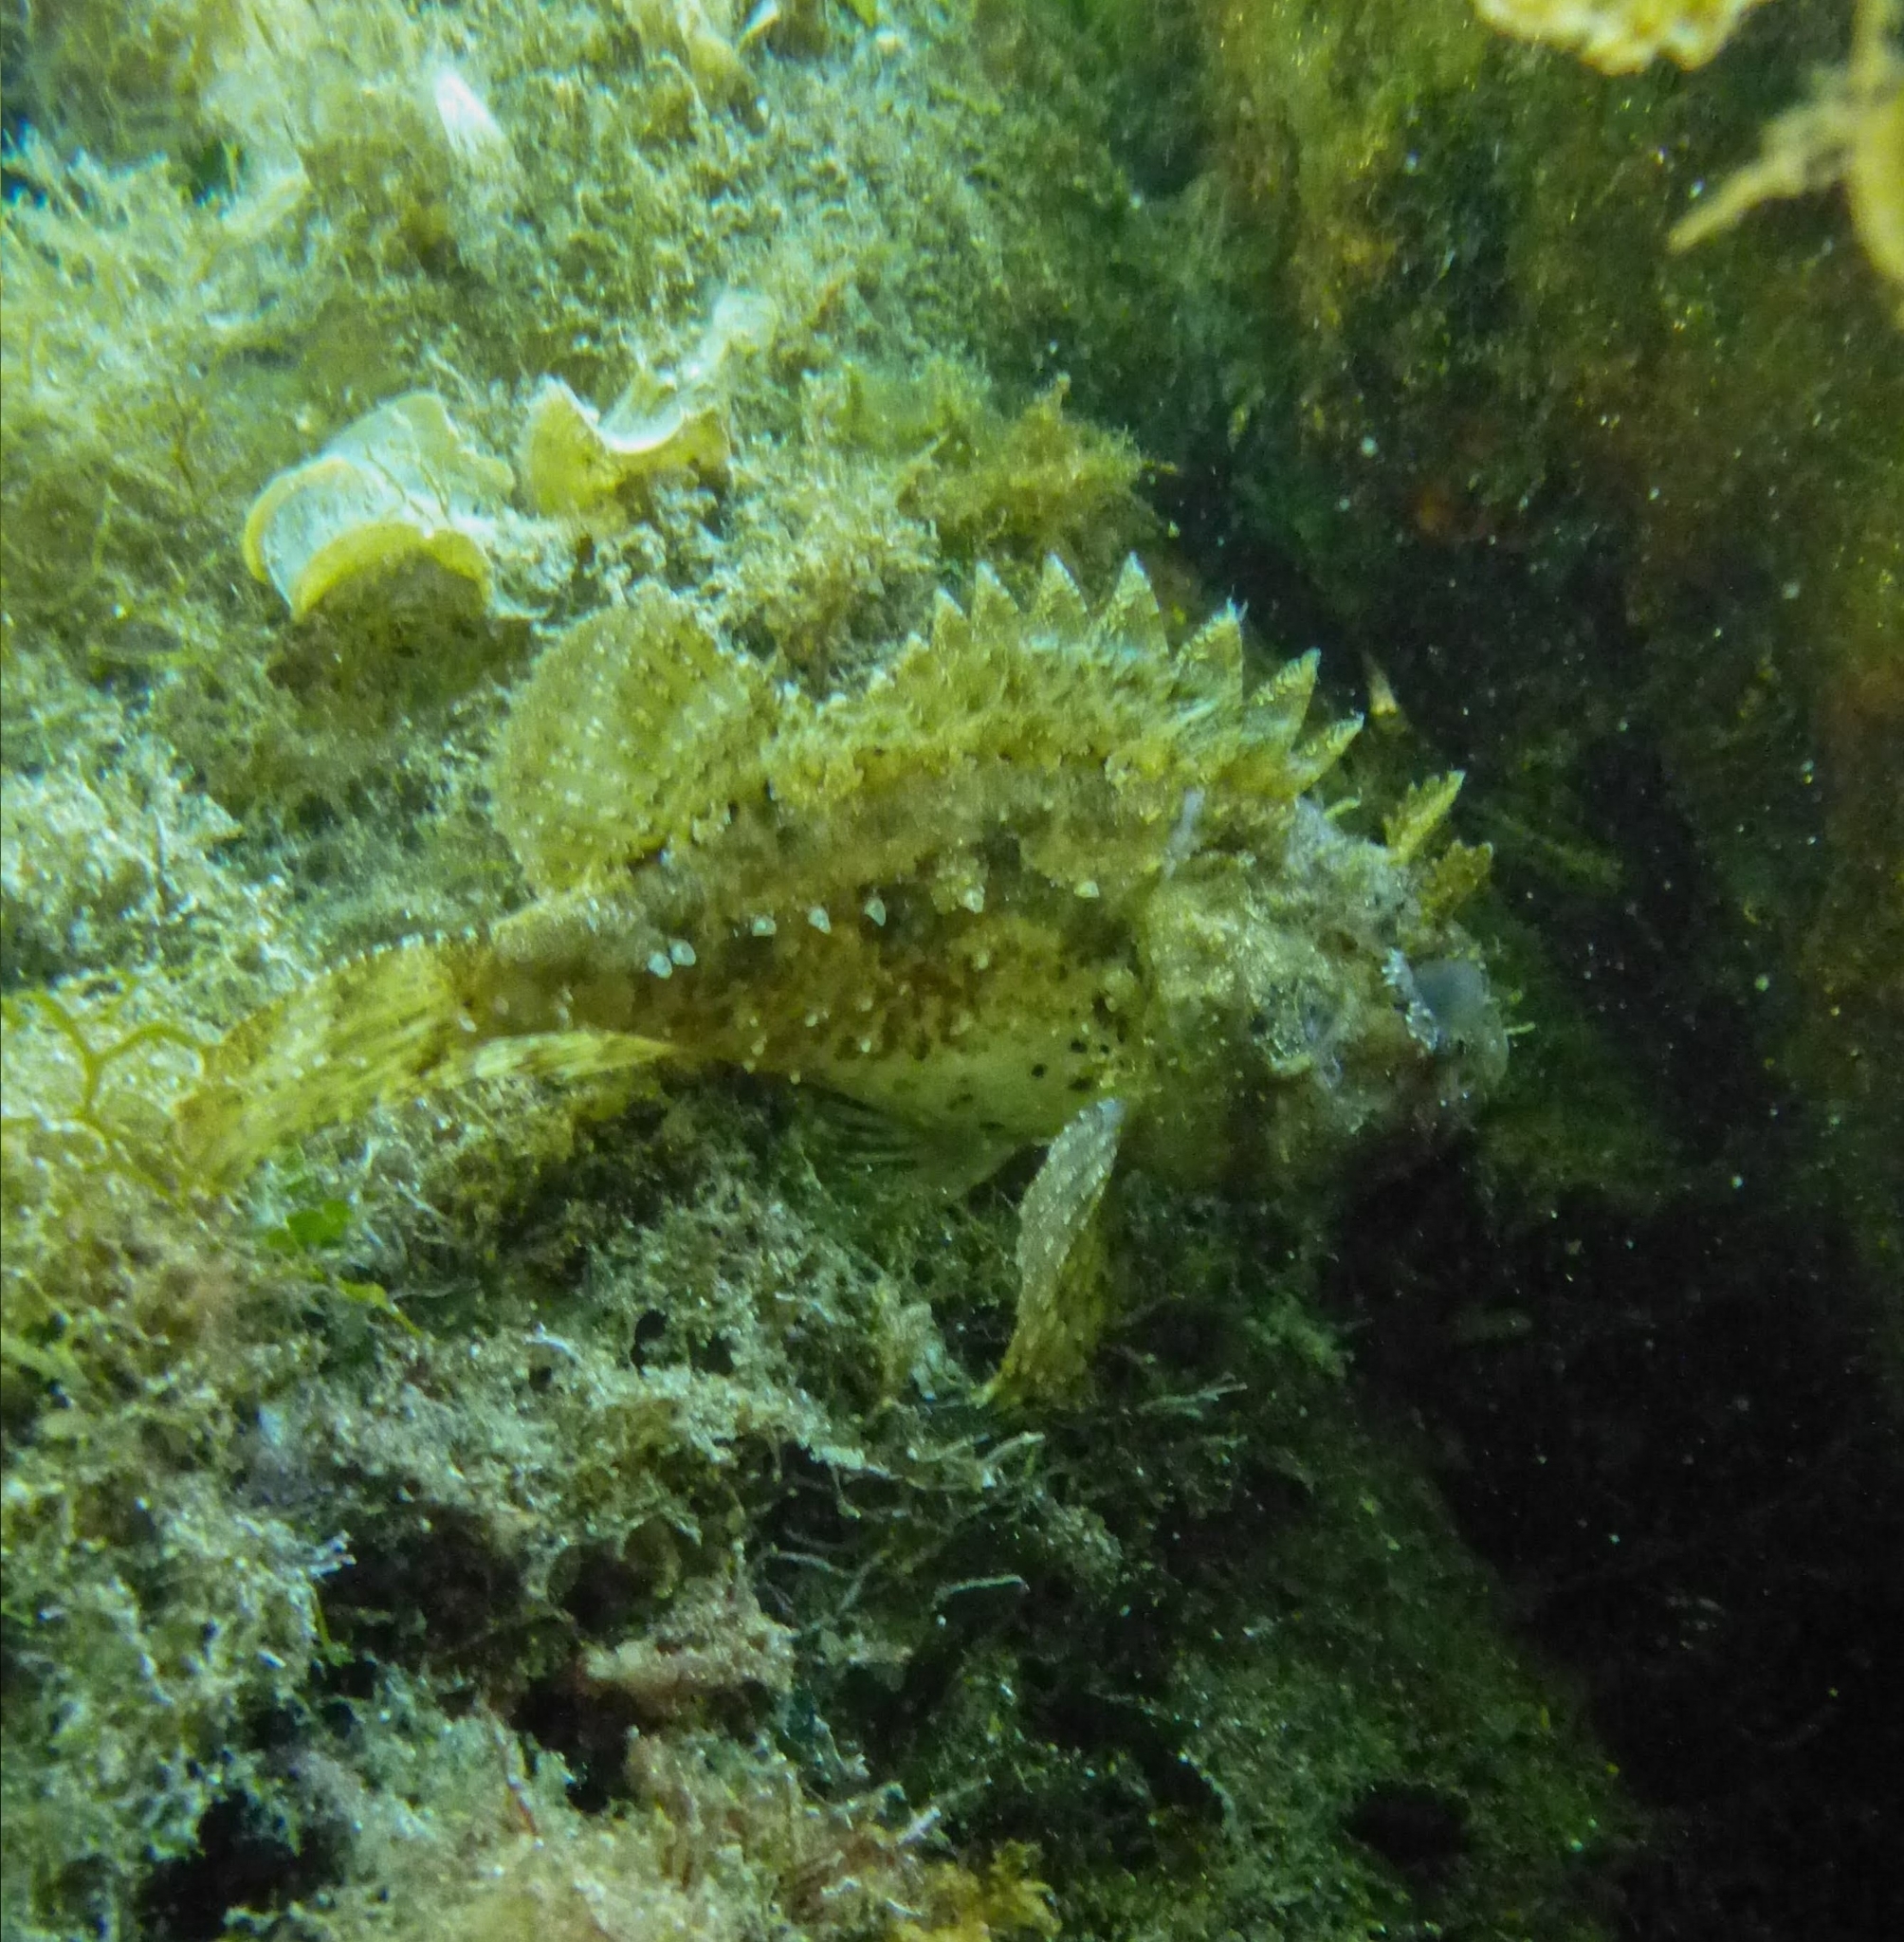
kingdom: Animalia
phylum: Chordata
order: Scorpaeniformes
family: Scorpaenidae
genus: Scorpaena
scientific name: Scorpaena porcus
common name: Black scorpionfish
